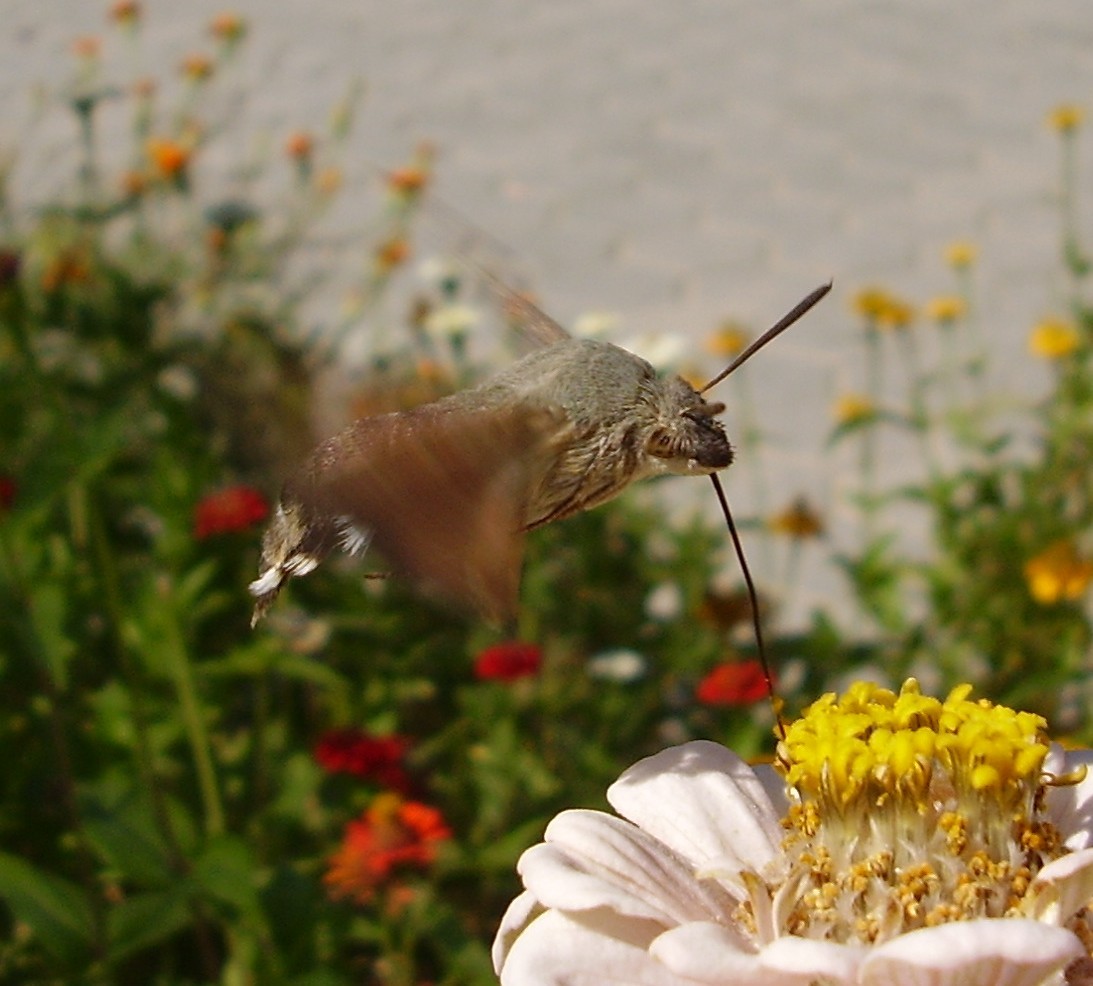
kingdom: Animalia
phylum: Arthropoda
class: Insecta
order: Lepidoptera
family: Sphingidae
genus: Macroglossum
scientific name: Macroglossum stellatarum
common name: Humming-bird hawk-moth
